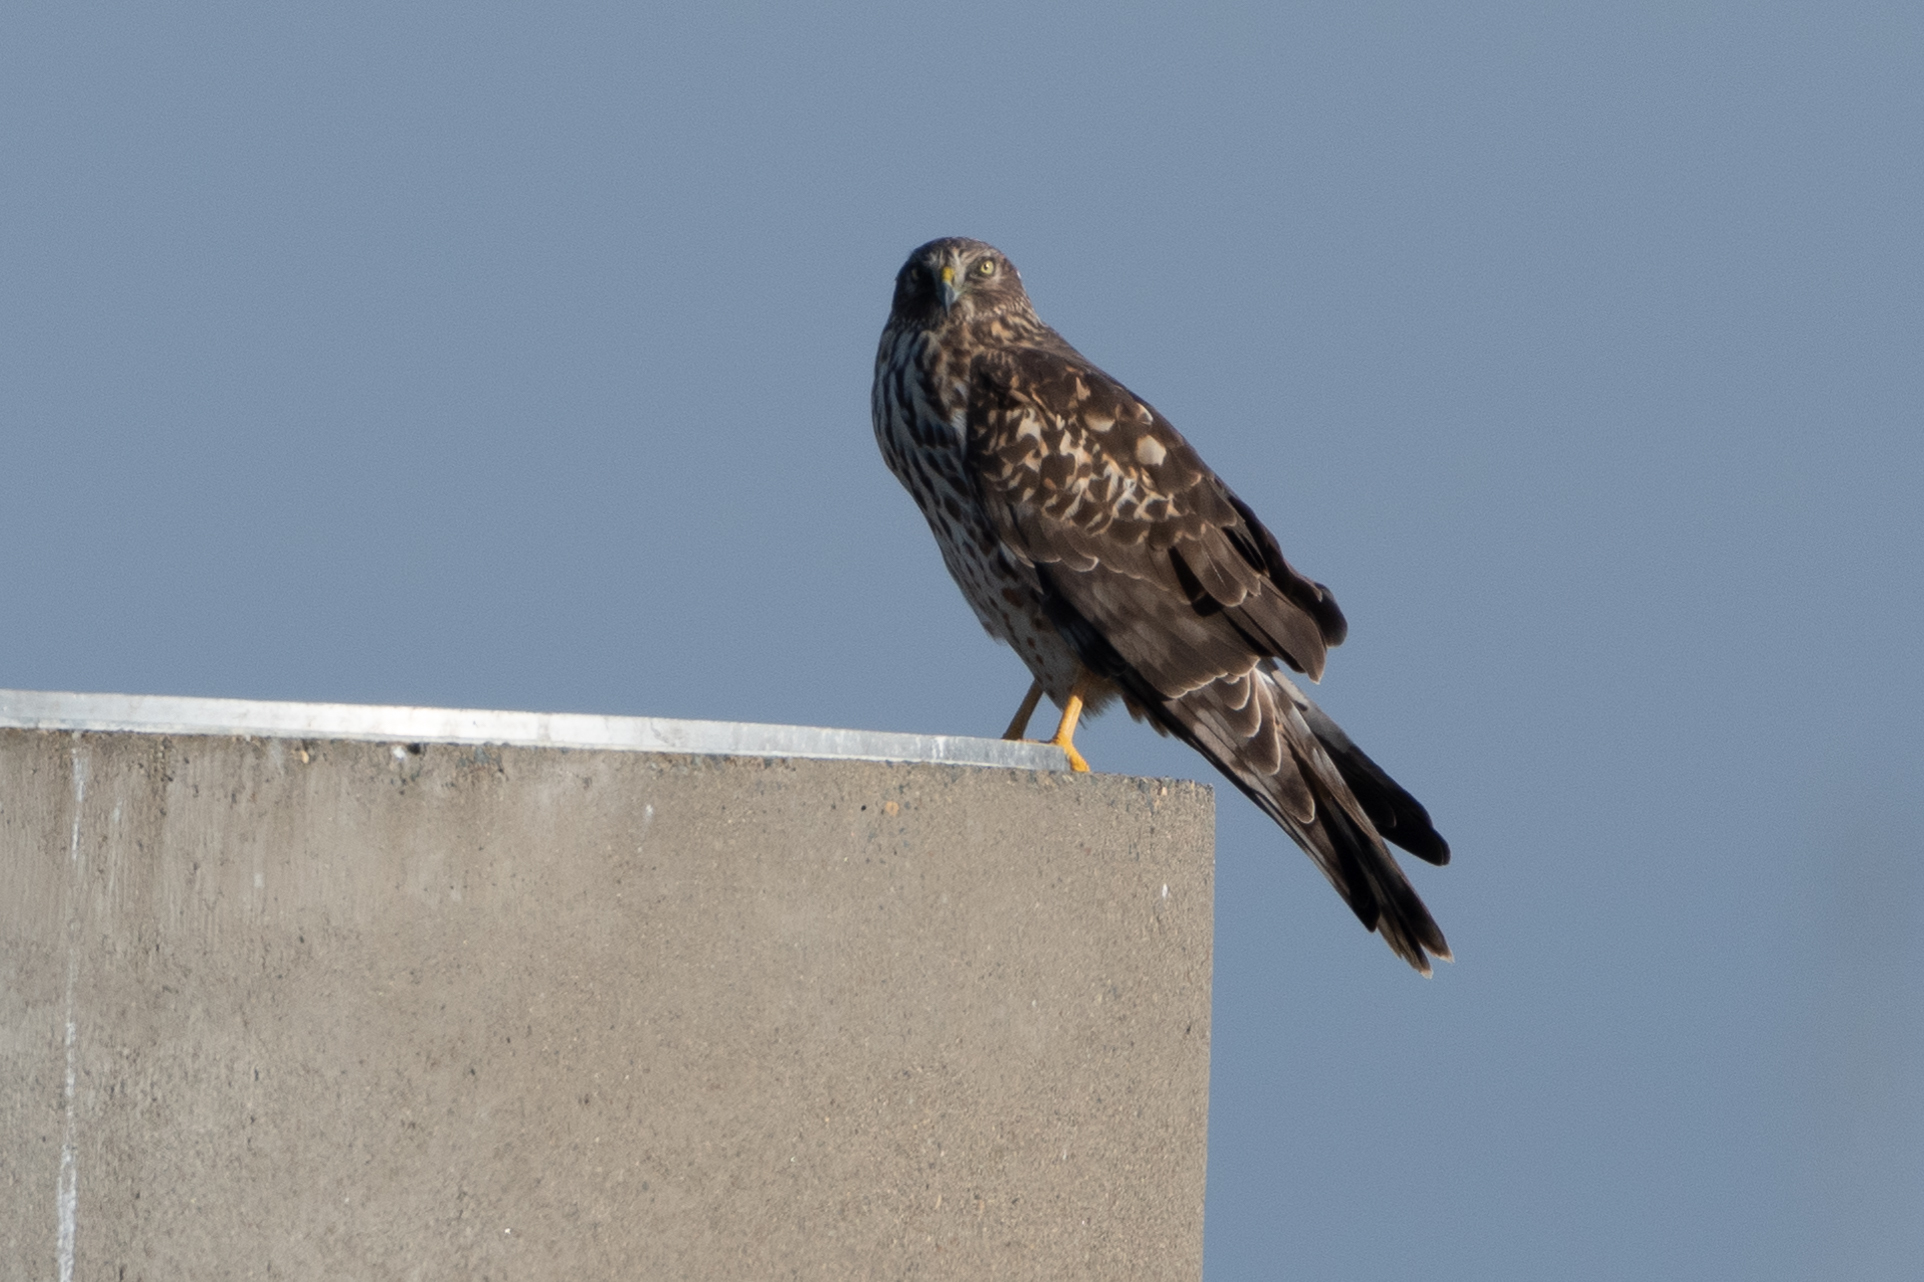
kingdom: Animalia
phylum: Chordata
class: Aves
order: Accipitriformes
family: Accipitridae
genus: Circus
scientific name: Circus cyaneus
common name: Hen harrier
